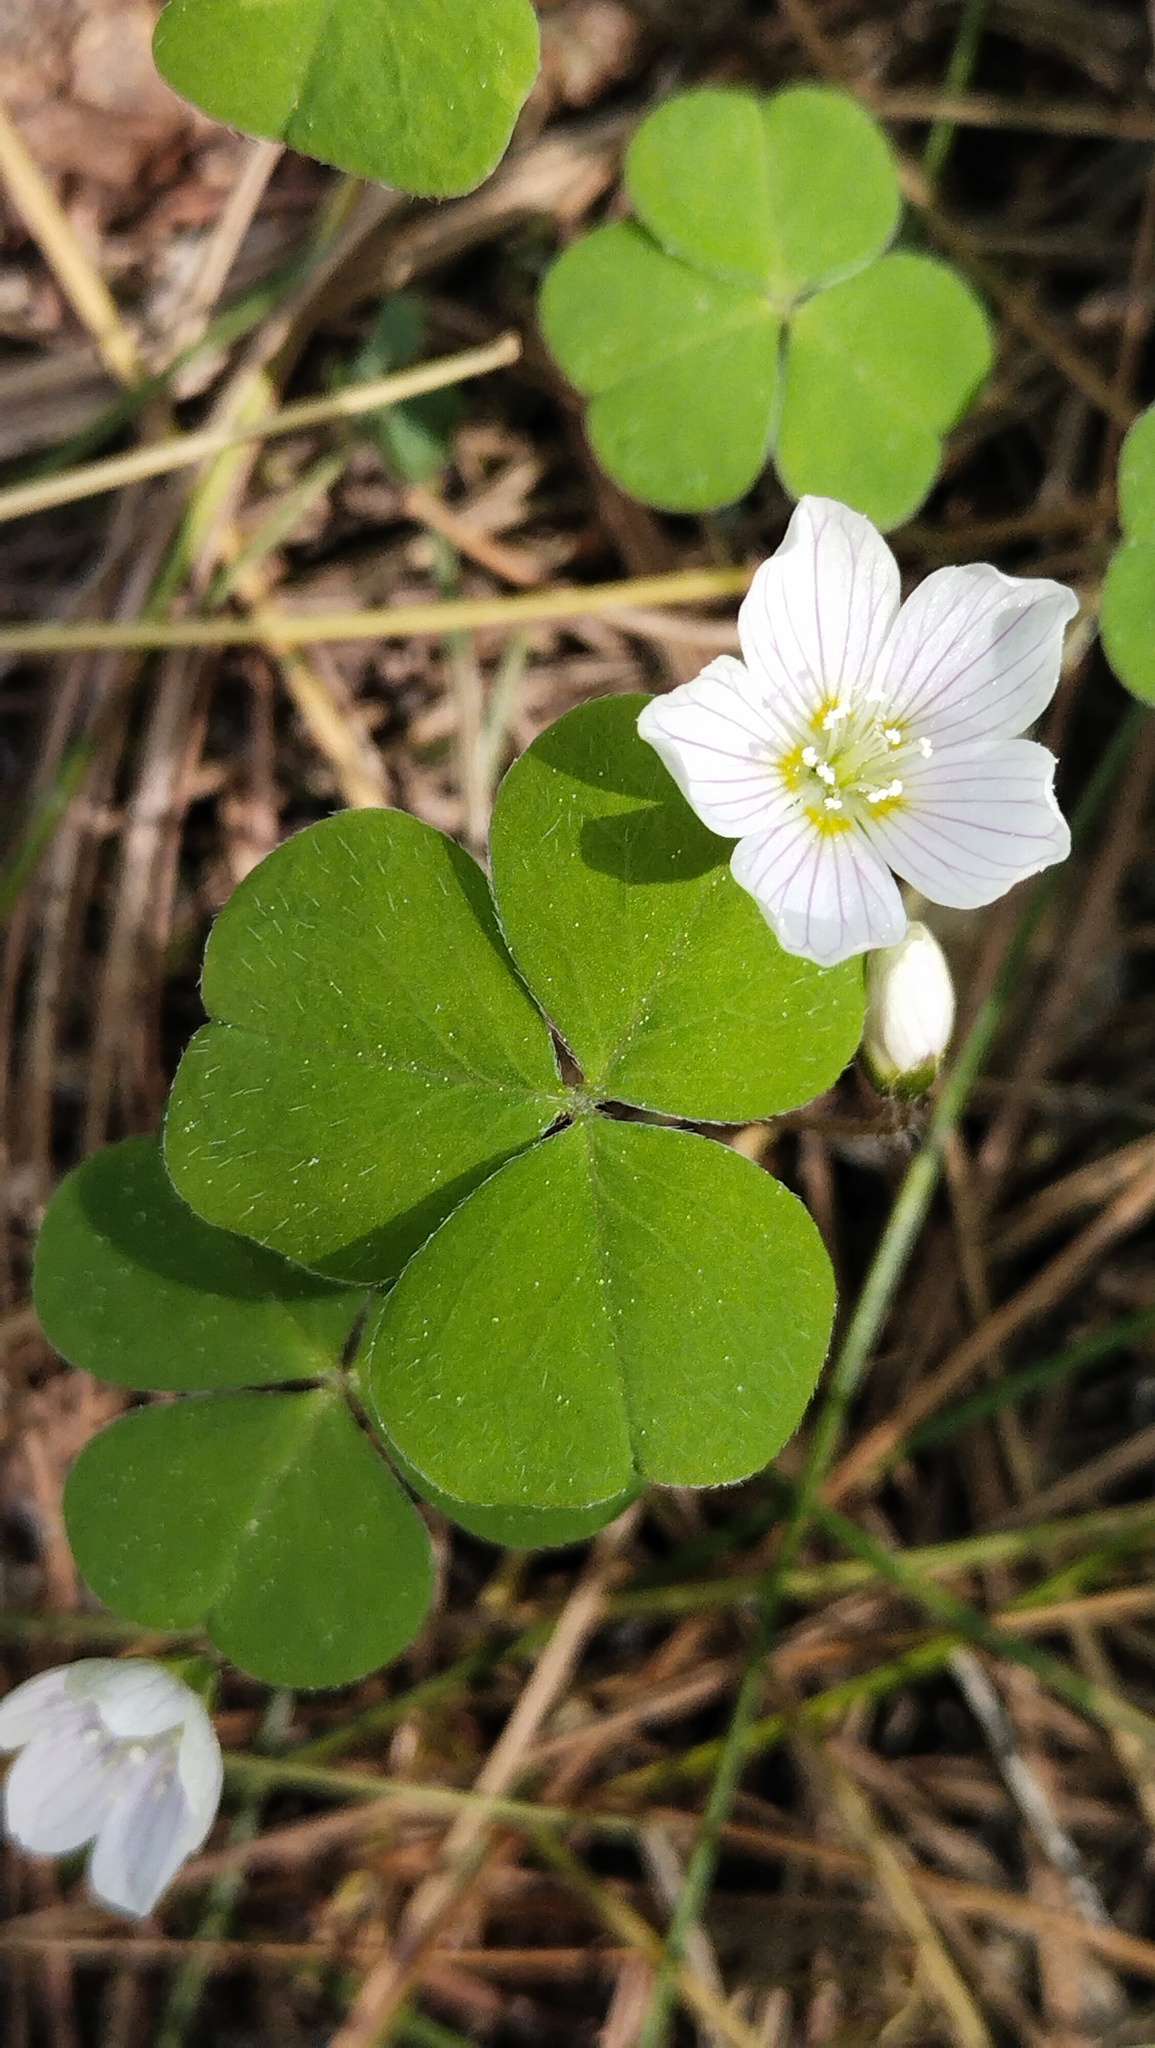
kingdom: Plantae
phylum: Tracheophyta
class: Magnoliopsida
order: Oxalidales
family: Oxalidaceae
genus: Oxalis
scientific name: Oxalis acetosella
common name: Wood-sorrel
